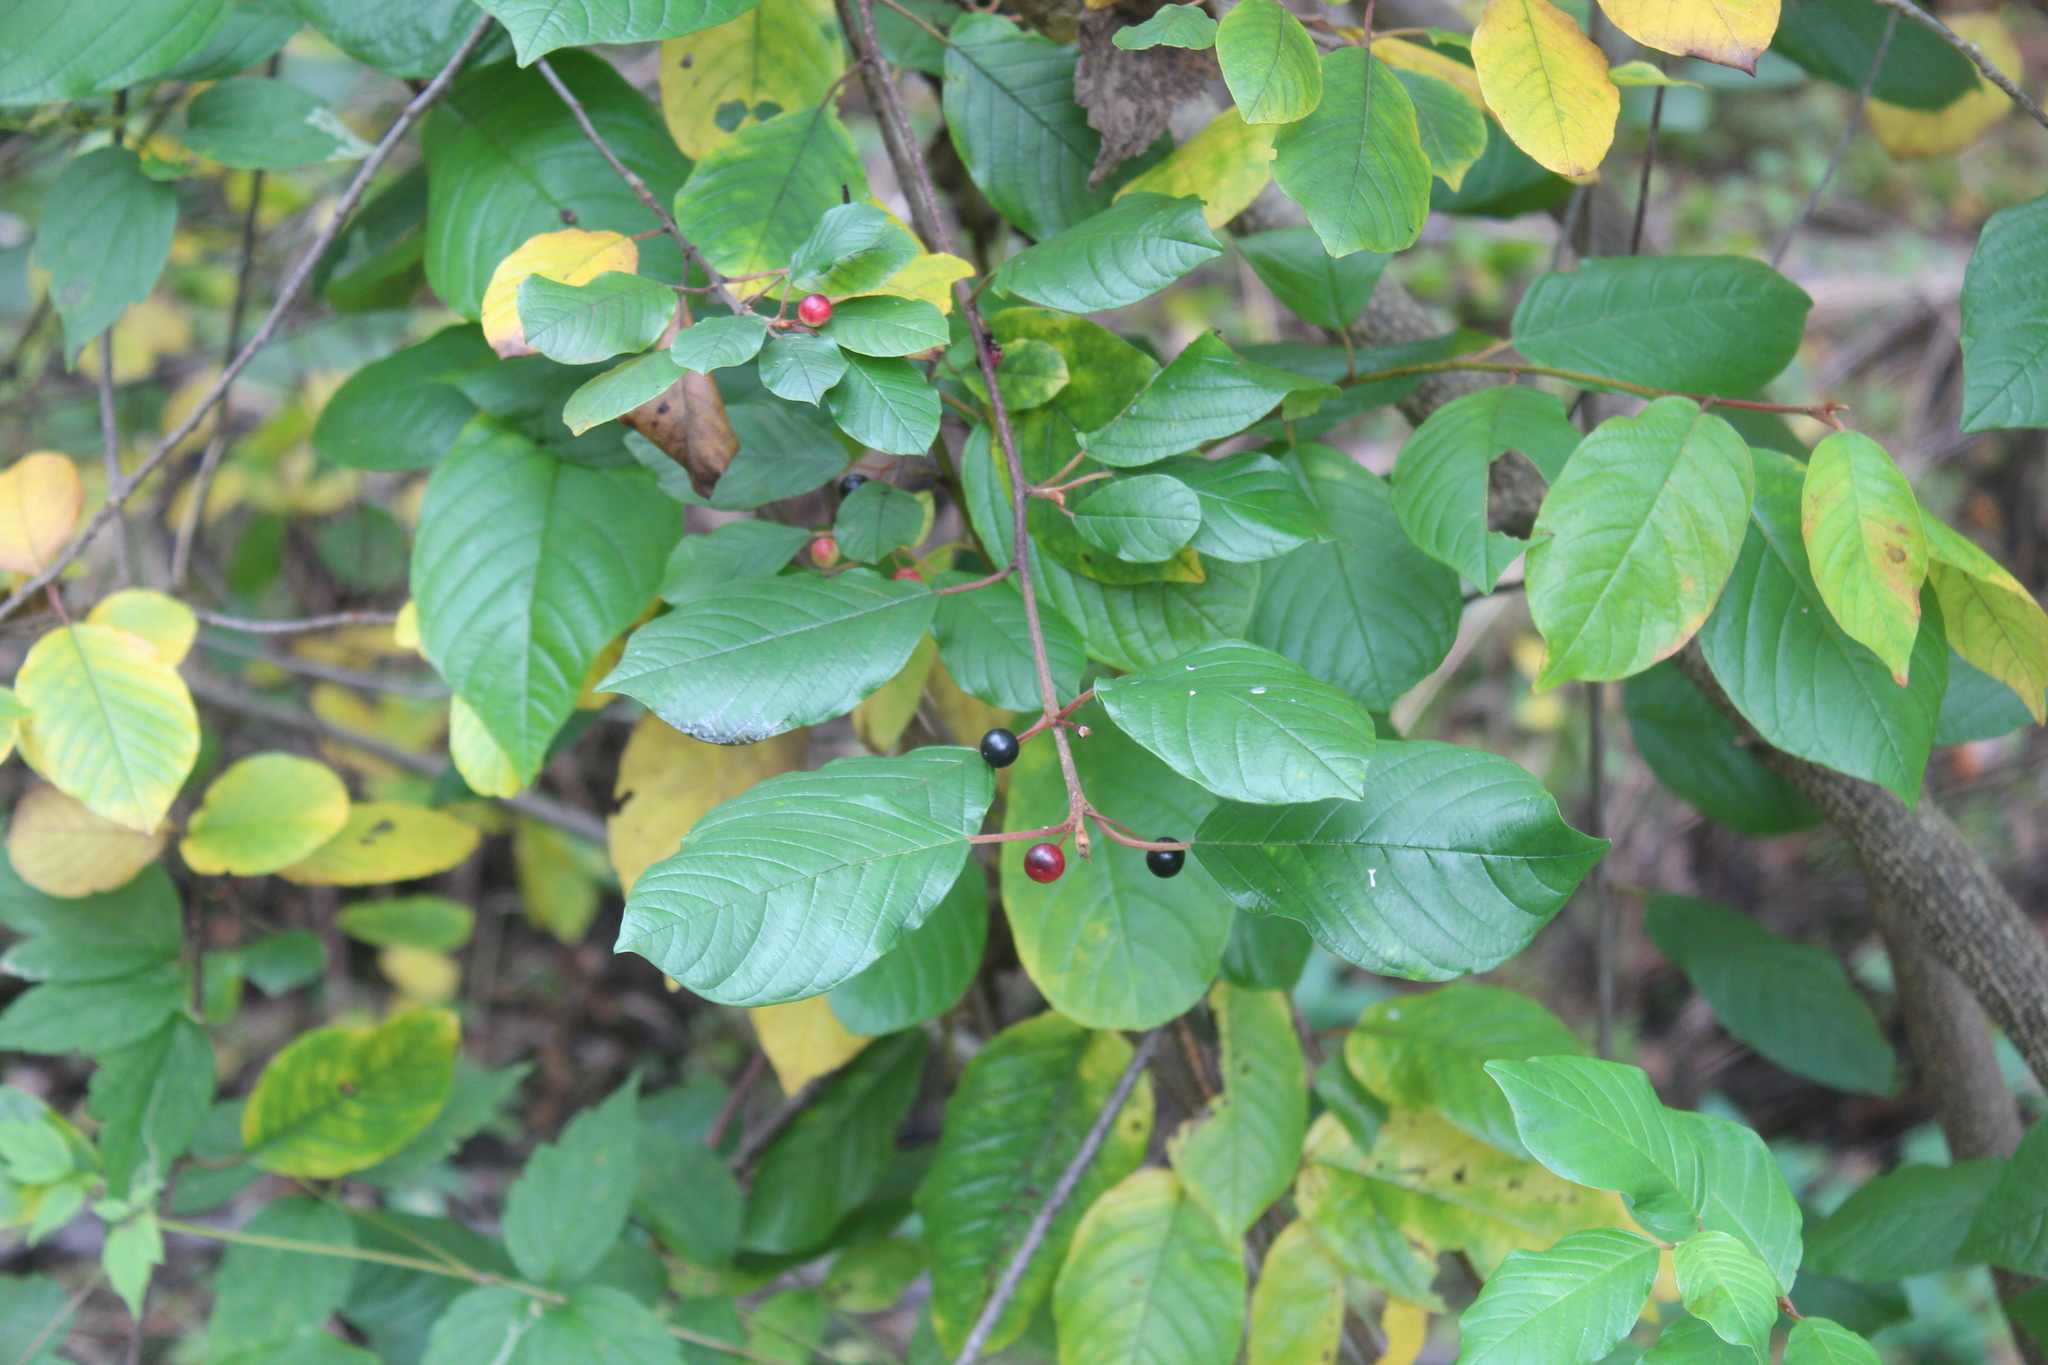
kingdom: Plantae
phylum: Tracheophyta
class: Magnoliopsida
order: Rosales
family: Rhamnaceae
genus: Frangula
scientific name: Frangula alnus
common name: Alder buckthorn
